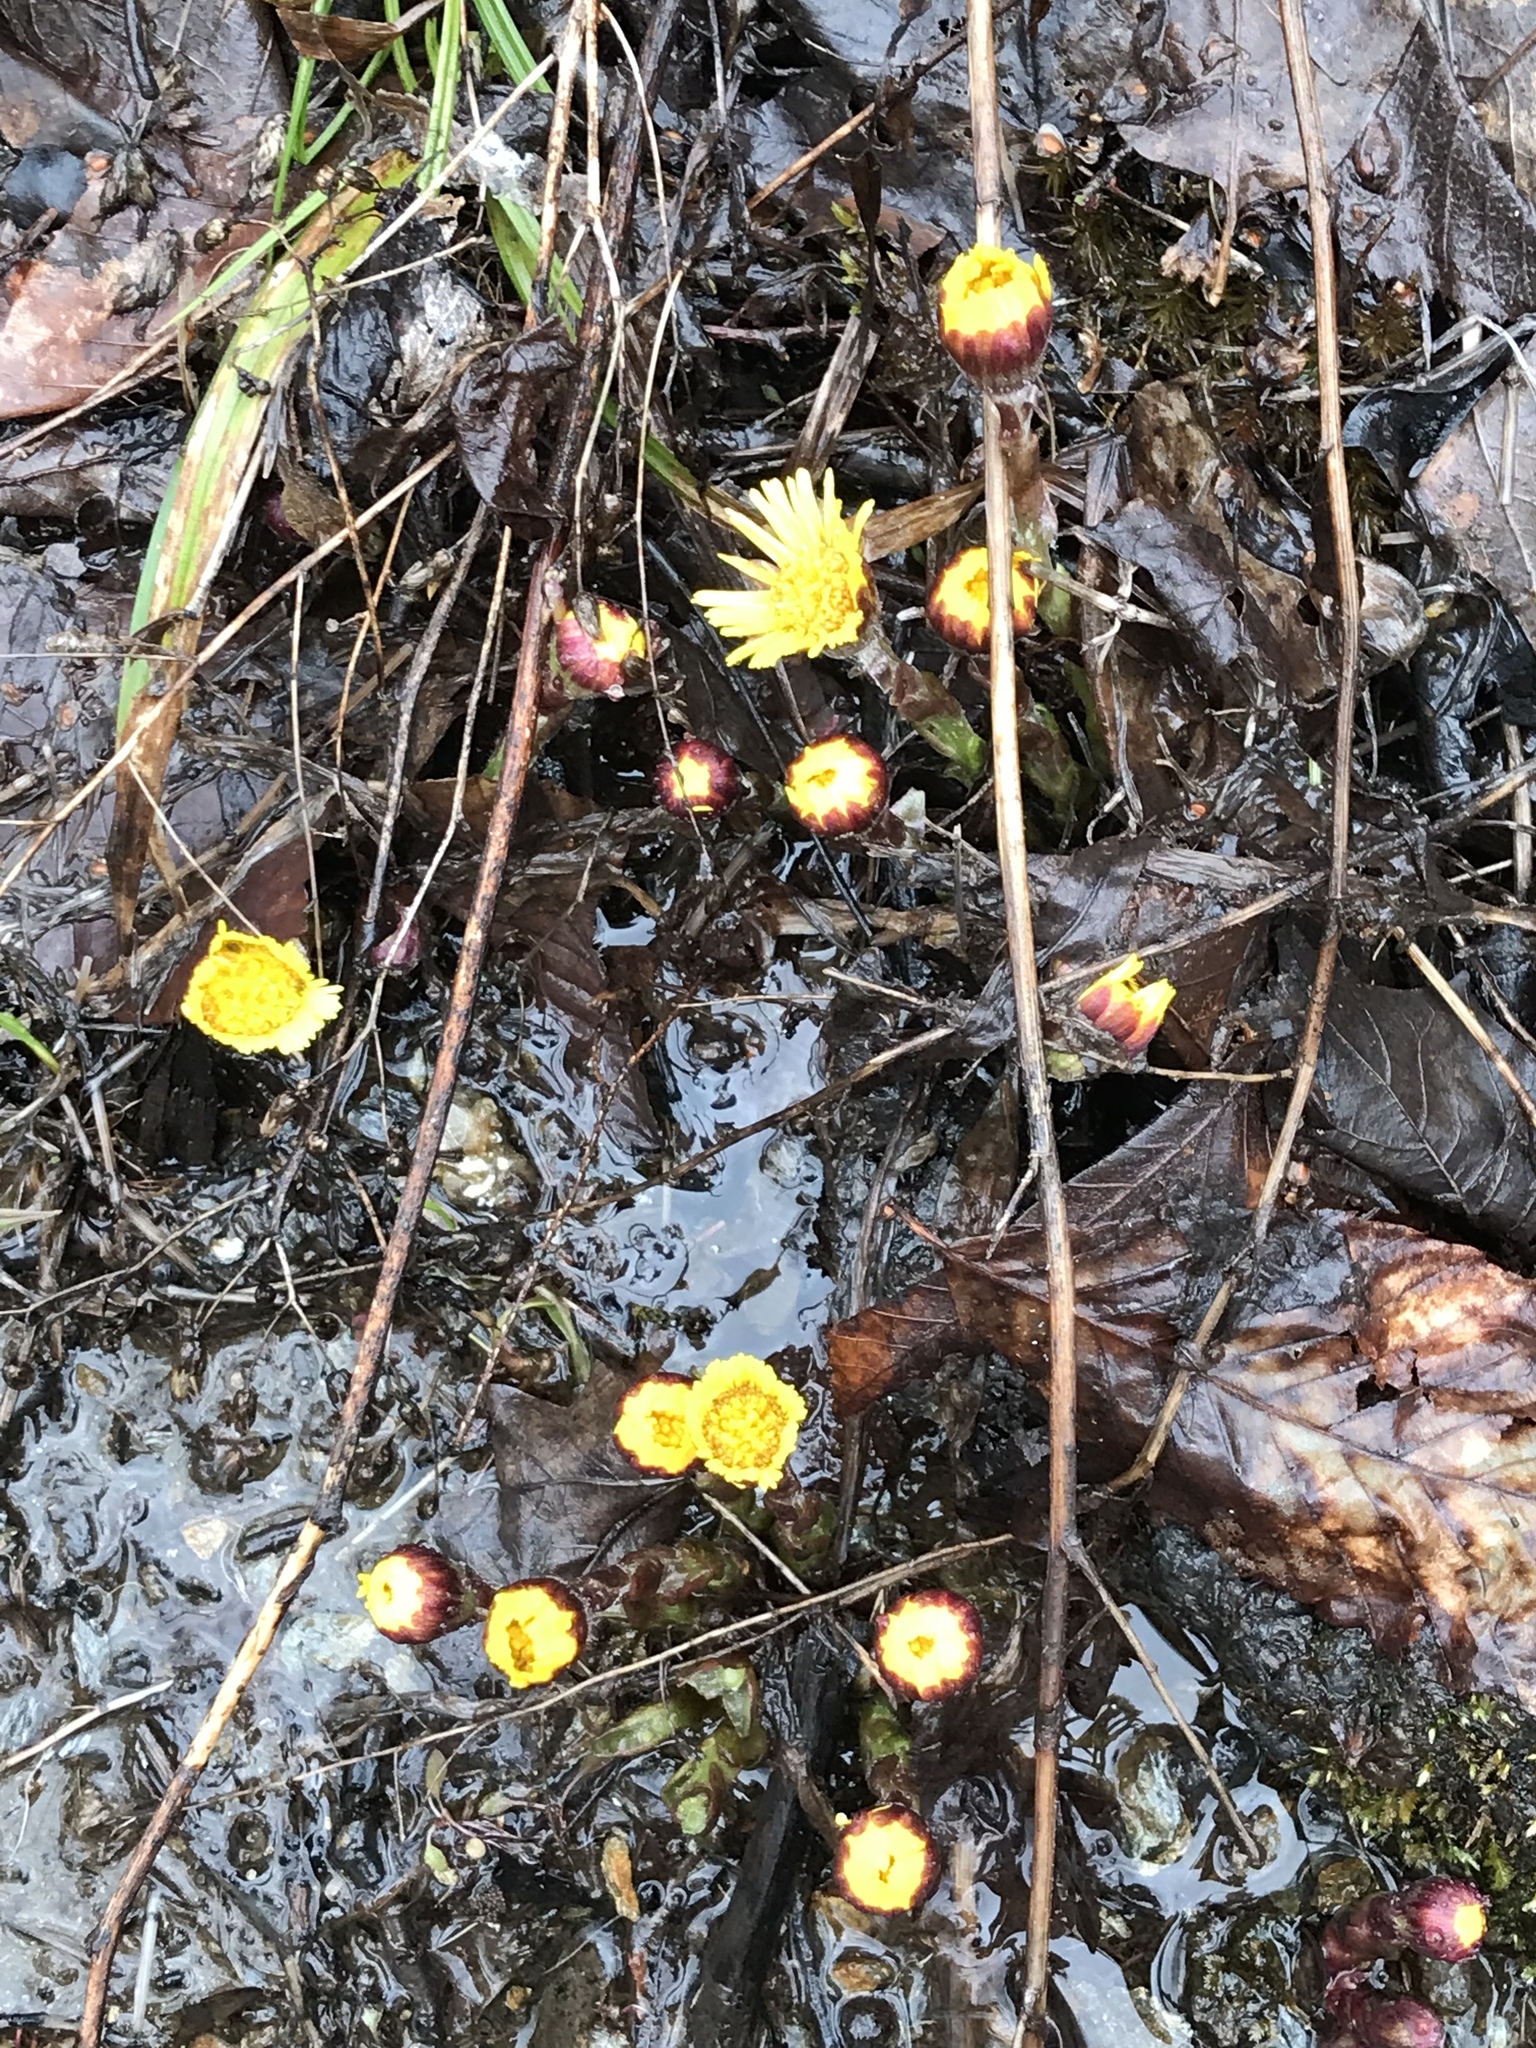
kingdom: Plantae
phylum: Tracheophyta
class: Magnoliopsida
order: Asterales
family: Asteraceae
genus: Tussilago
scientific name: Tussilago farfara
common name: Coltsfoot
